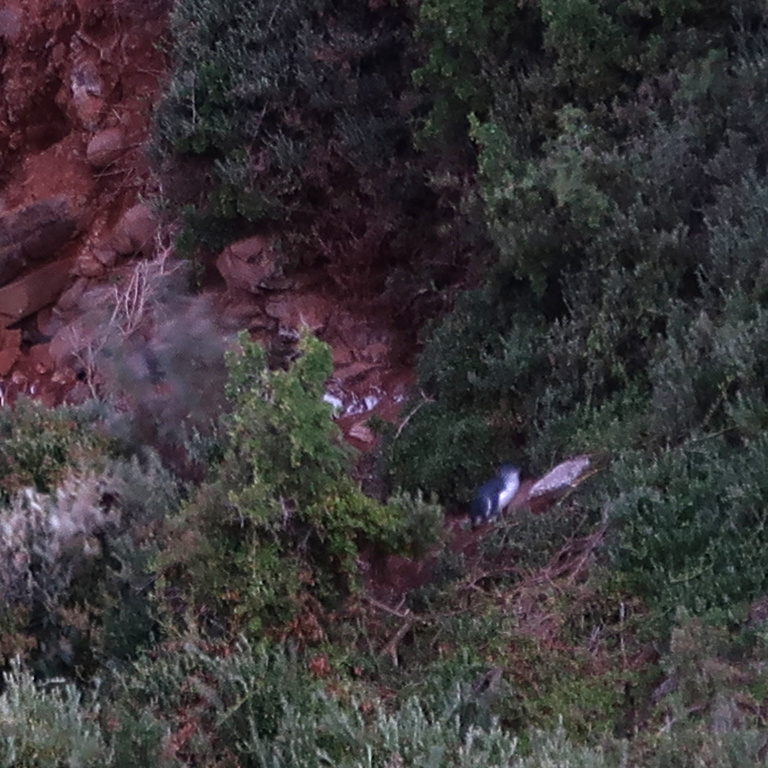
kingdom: Animalia
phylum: Chordata
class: Aves
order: Sphenisciformes
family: Spheniscidae
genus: Eudyptula
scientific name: Eudyptula minor
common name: Little penguin
